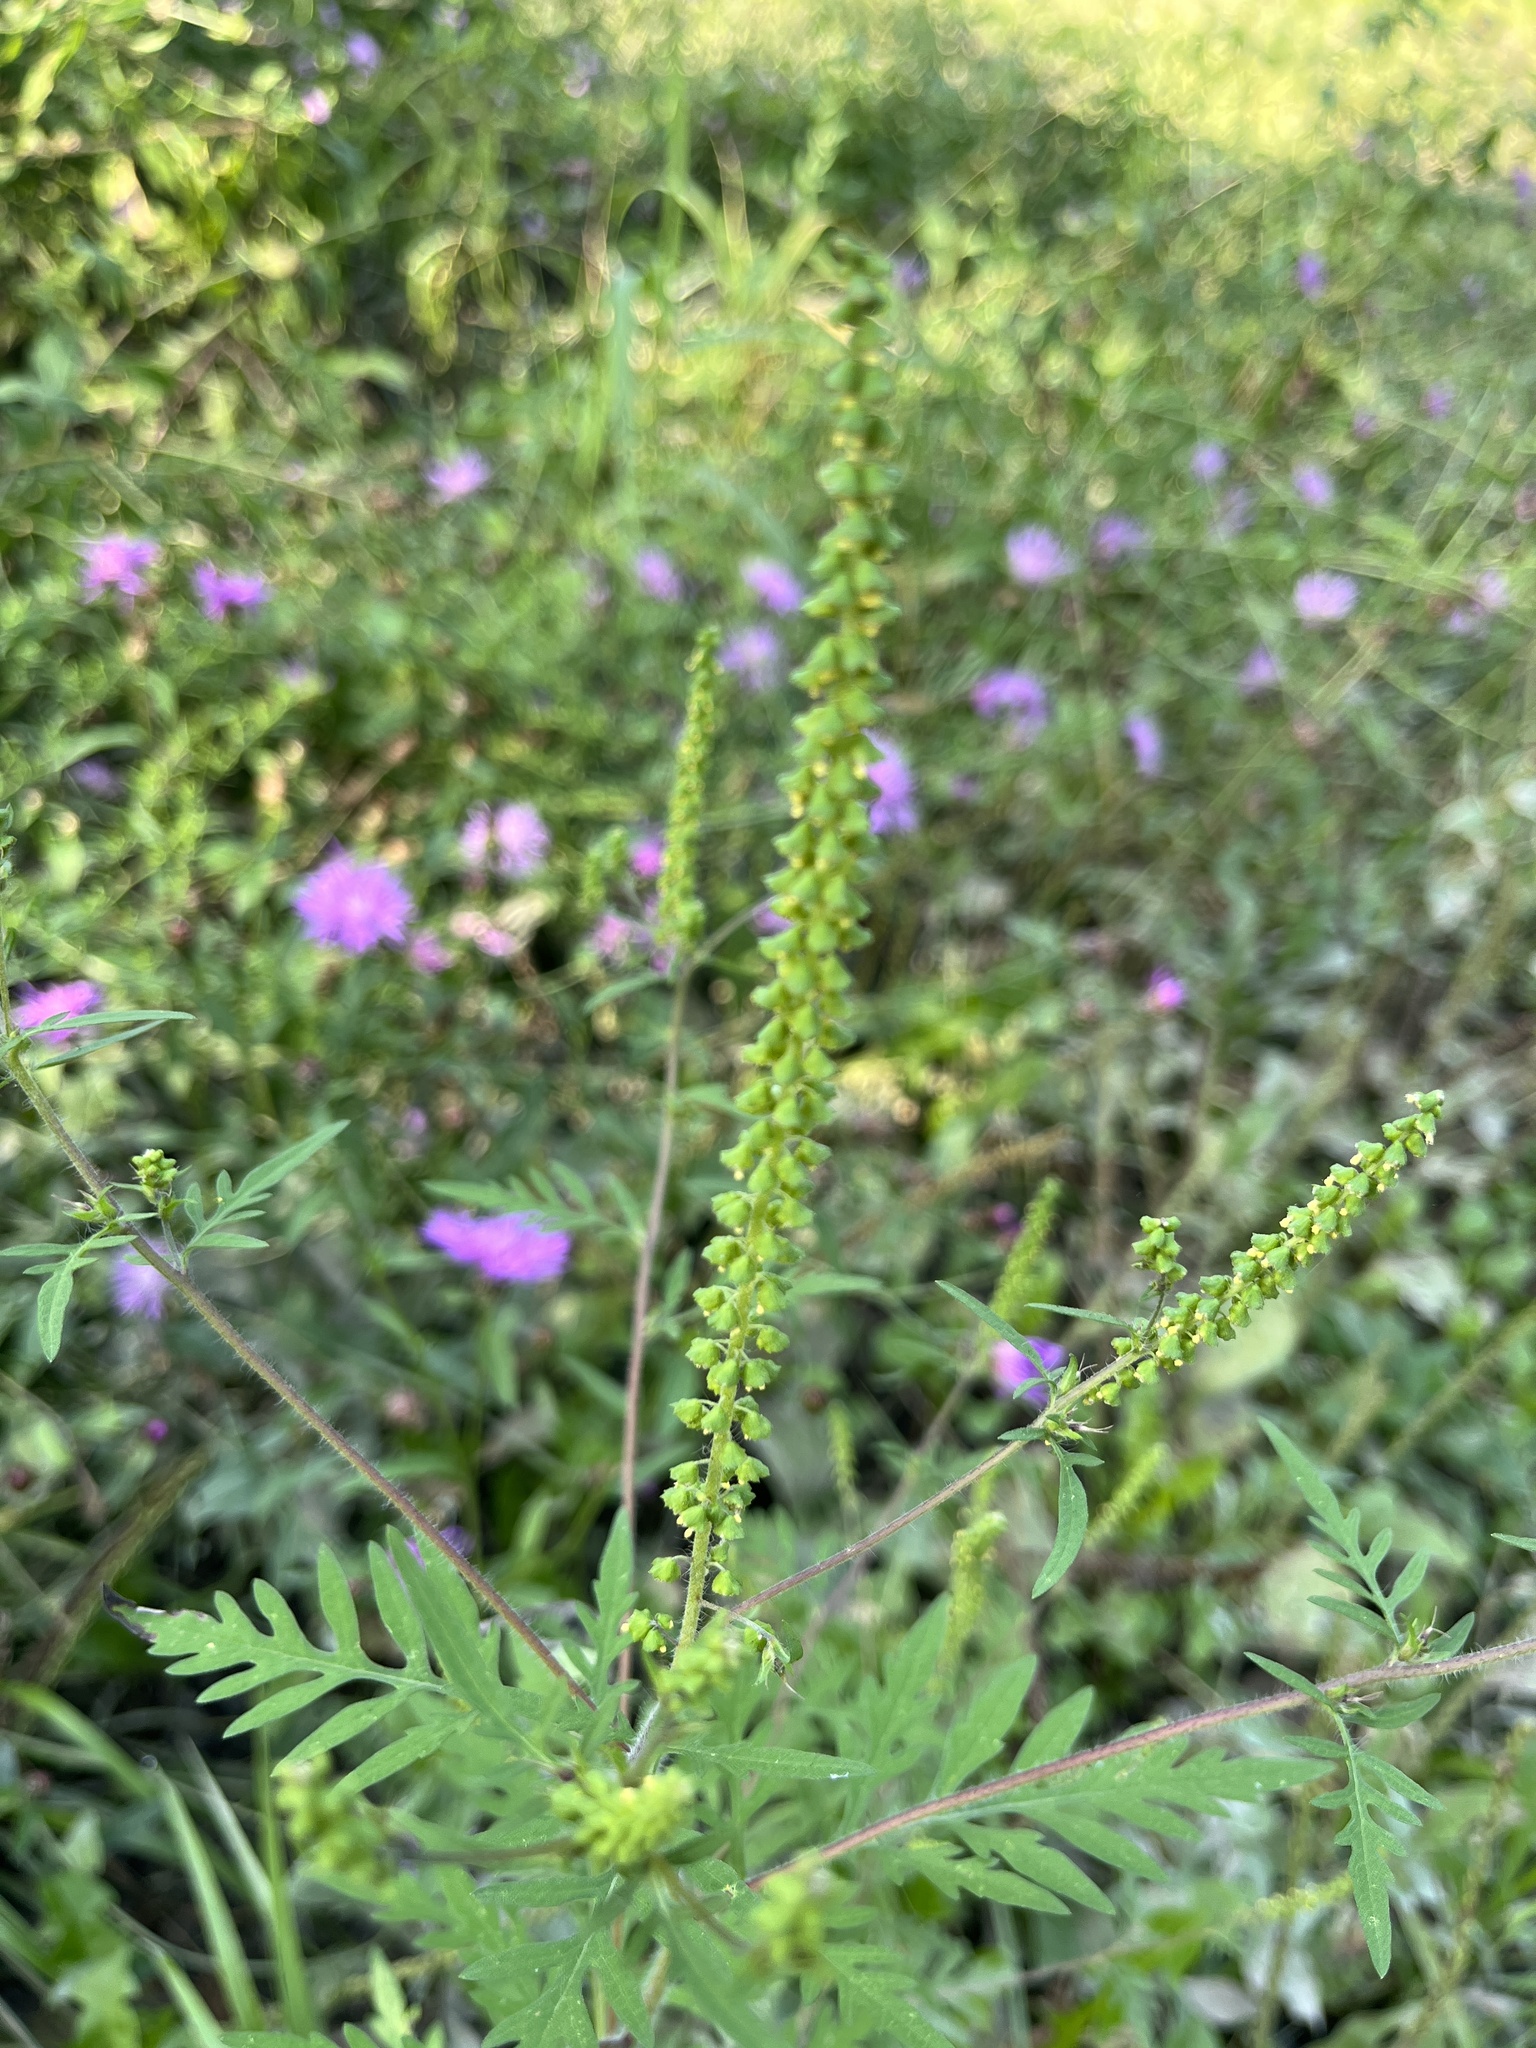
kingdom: Plantae
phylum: Tracheophyta
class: Magnoliopsida
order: Asterales
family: Asteraceae
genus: Ambrosia
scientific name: Ambrosia artemisiifolia
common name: Annual ragweed
